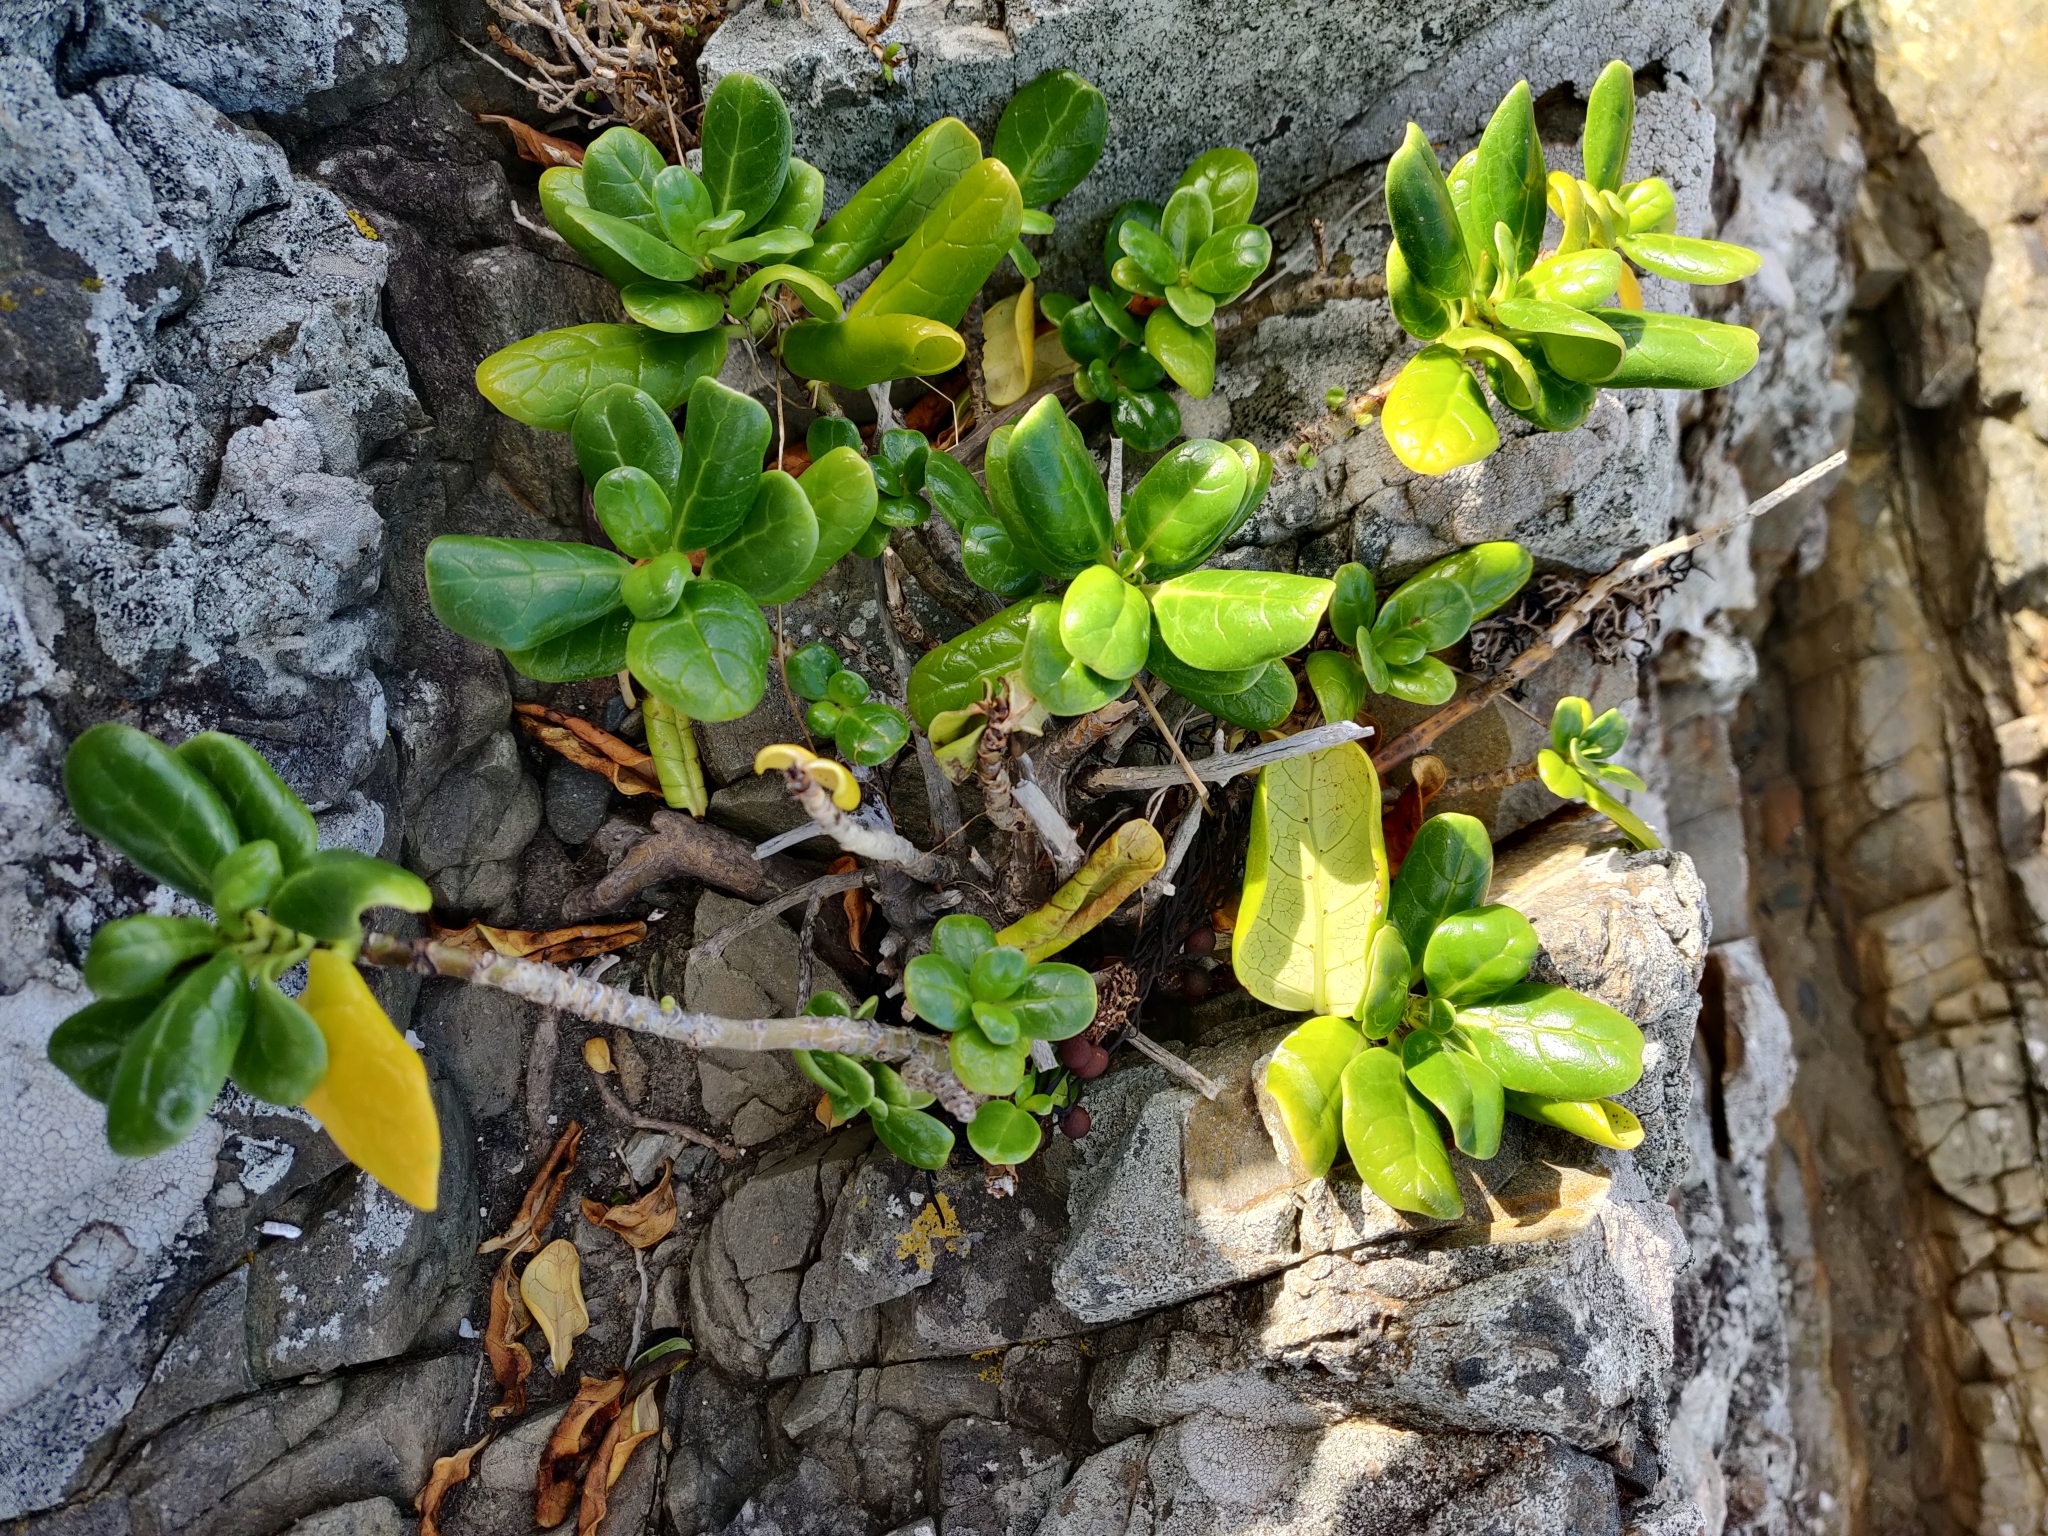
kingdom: Plantae
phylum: Tracheophyta
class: Magnoliopsida
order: Gentianales
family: Rubiaceae
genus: Coprosma
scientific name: Coprosma repens
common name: Tree bedstraw
